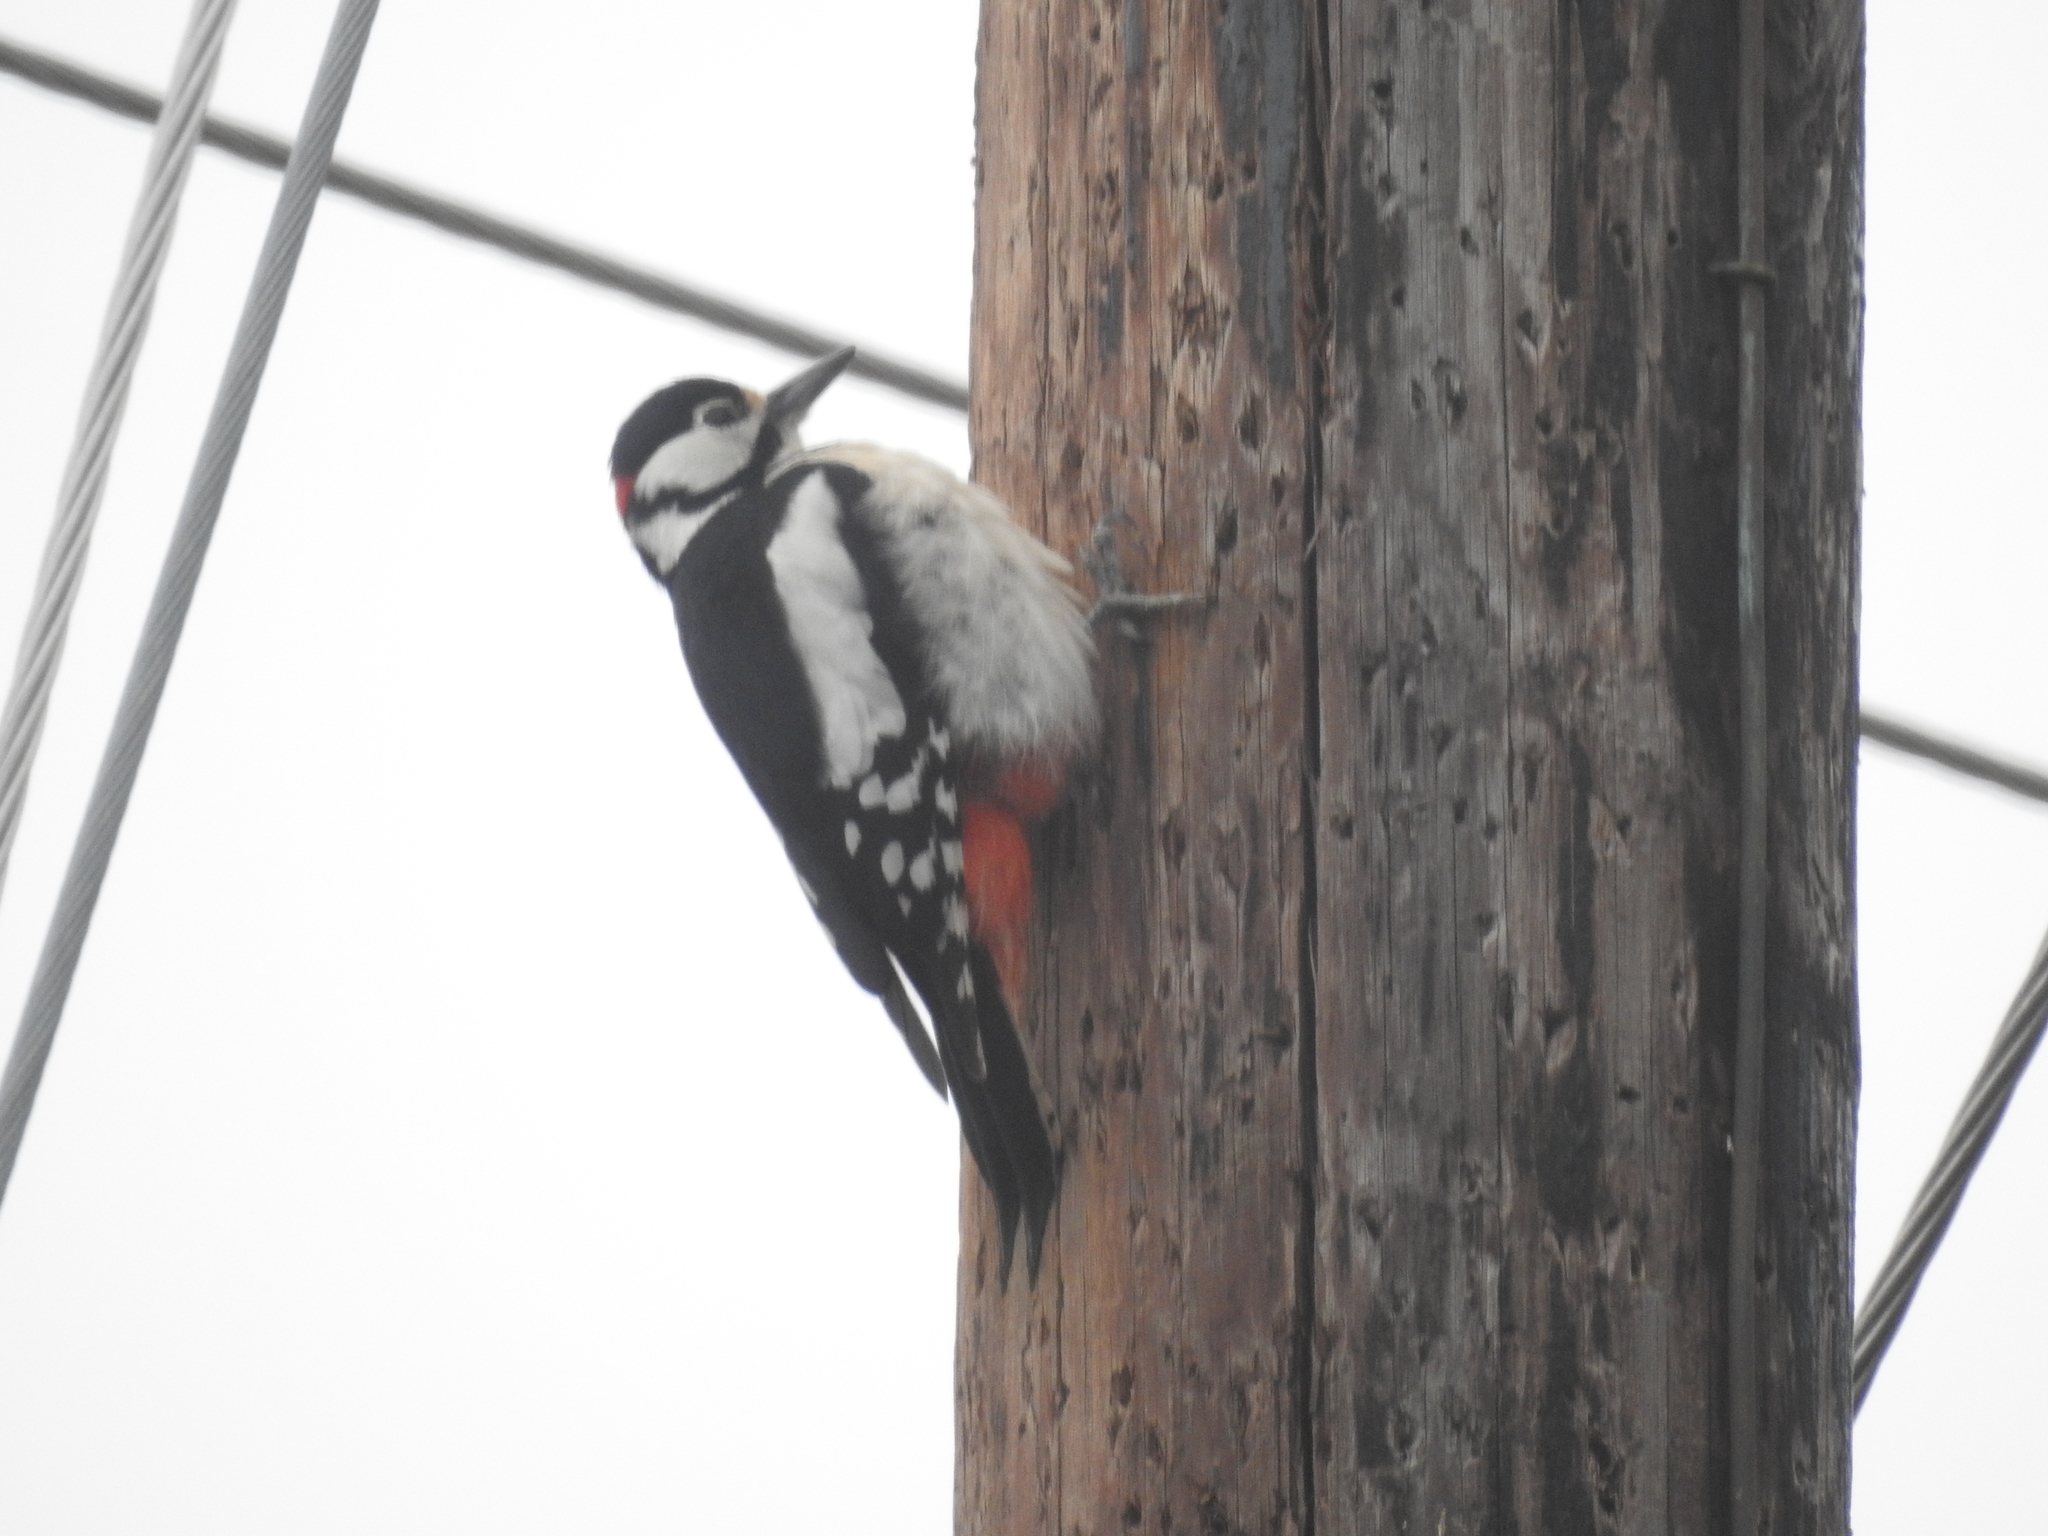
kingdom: Animalia
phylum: Chordata
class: Aves
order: Piciformes
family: Picidae
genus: Dendrocopos
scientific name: Dendrocopos major
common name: Great spotted woodpecker
